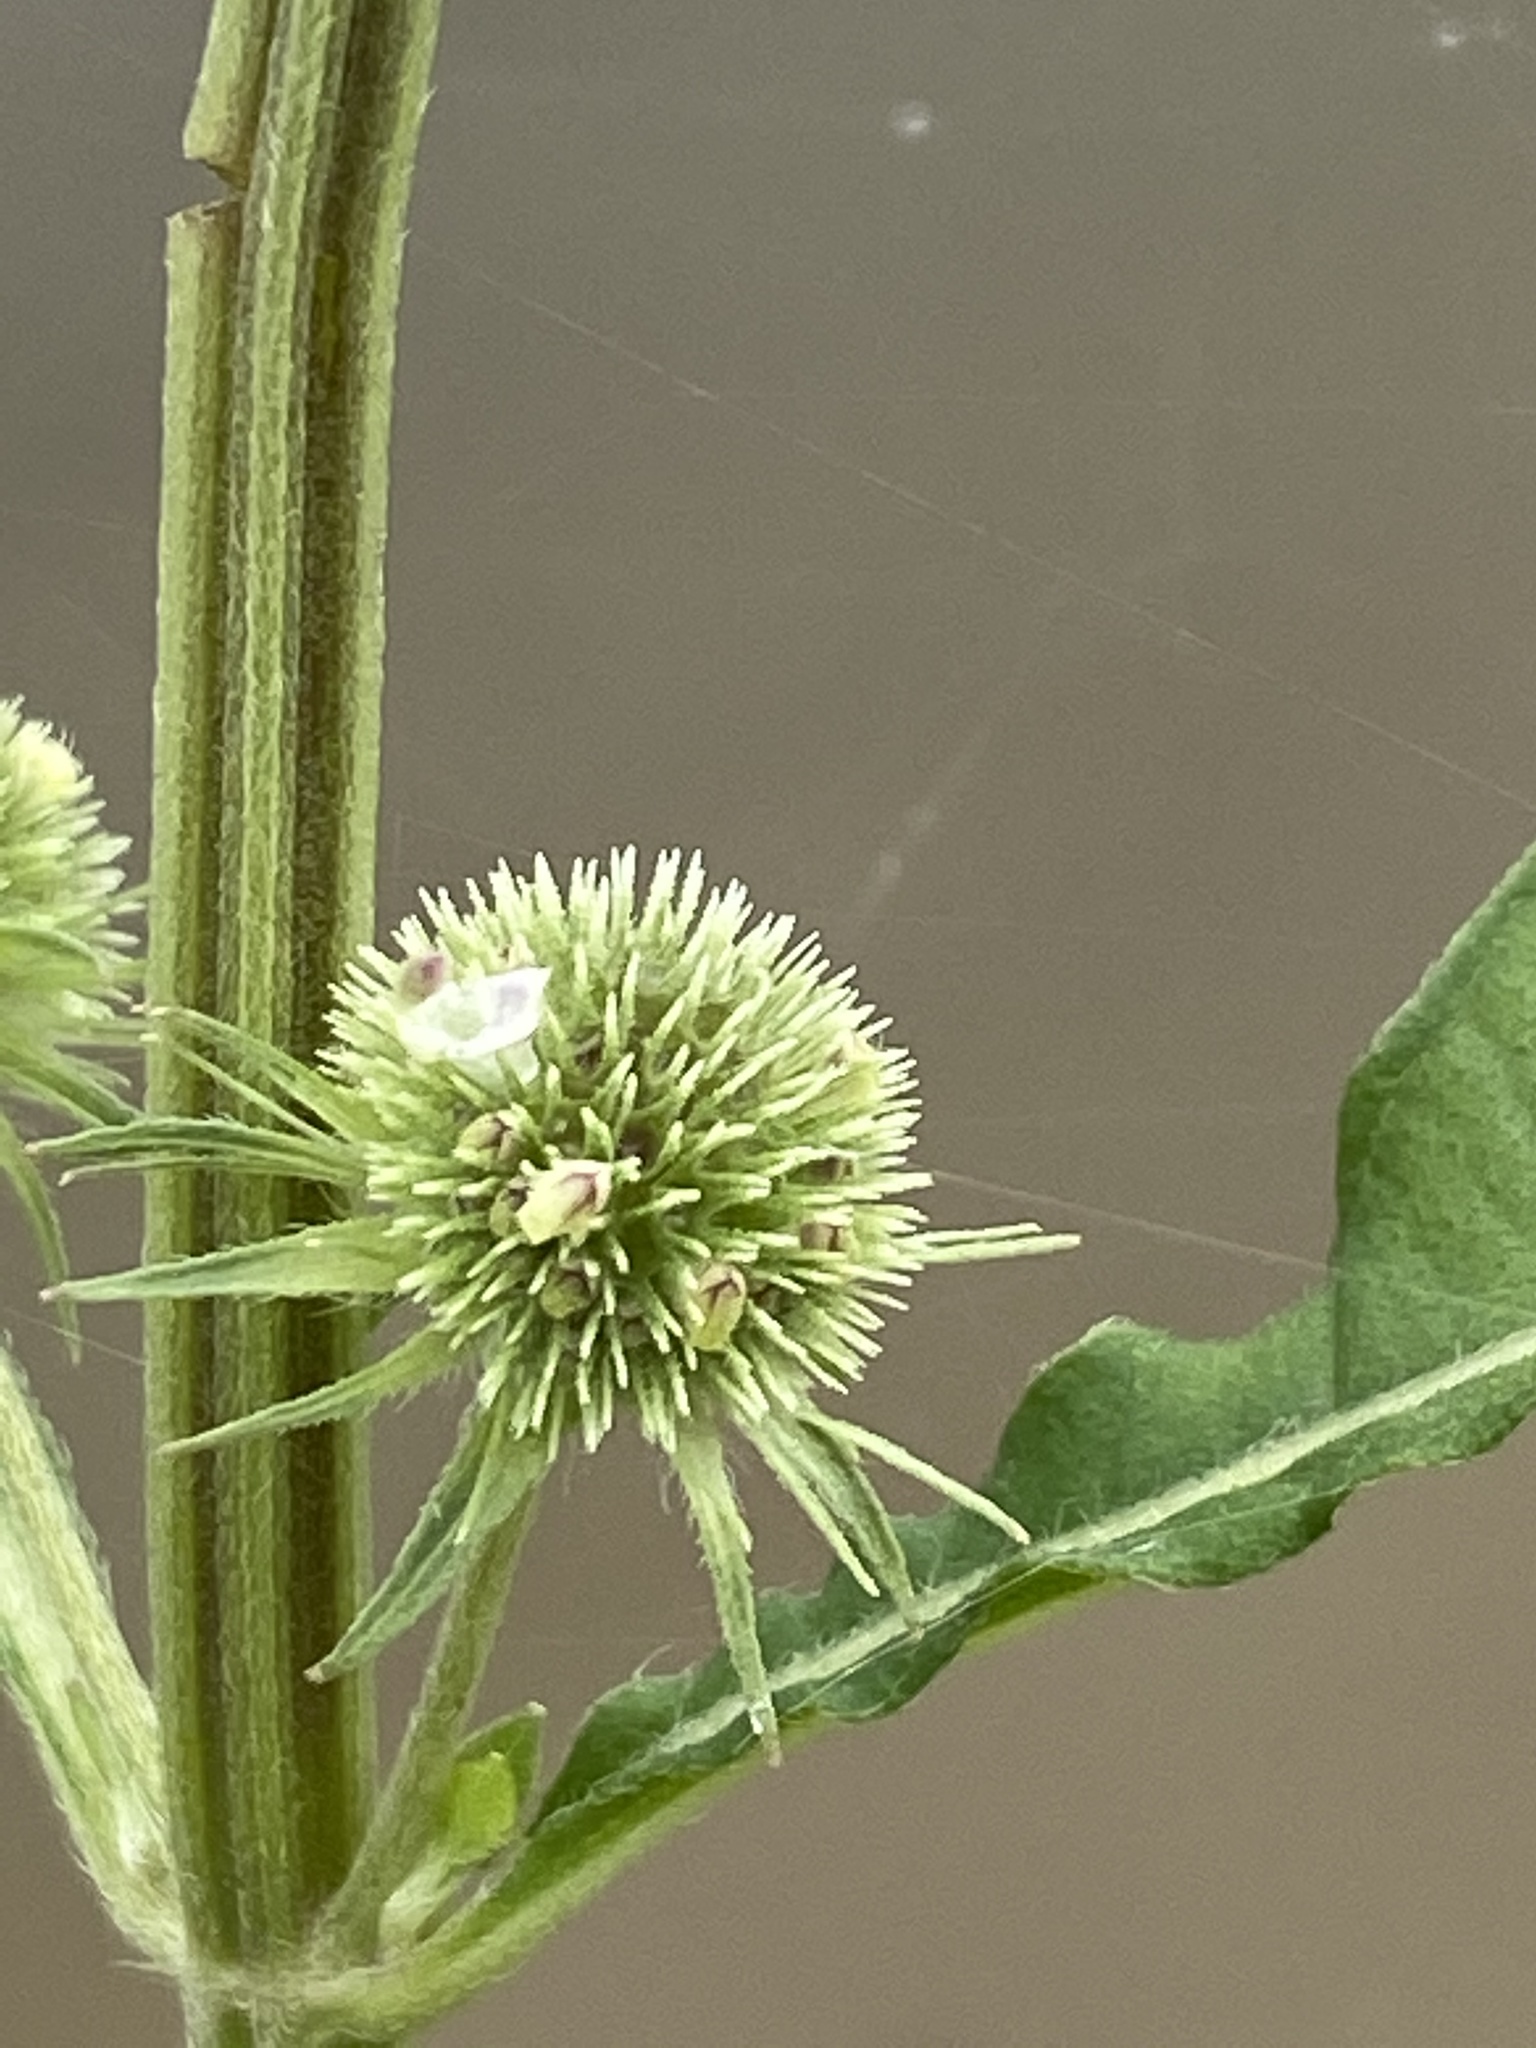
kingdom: Plantae
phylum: Tracheophyta
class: Magnoliopsida
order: Lamiales
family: Lamiaceae
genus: Hyptis
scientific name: Hyptis multibracteata
